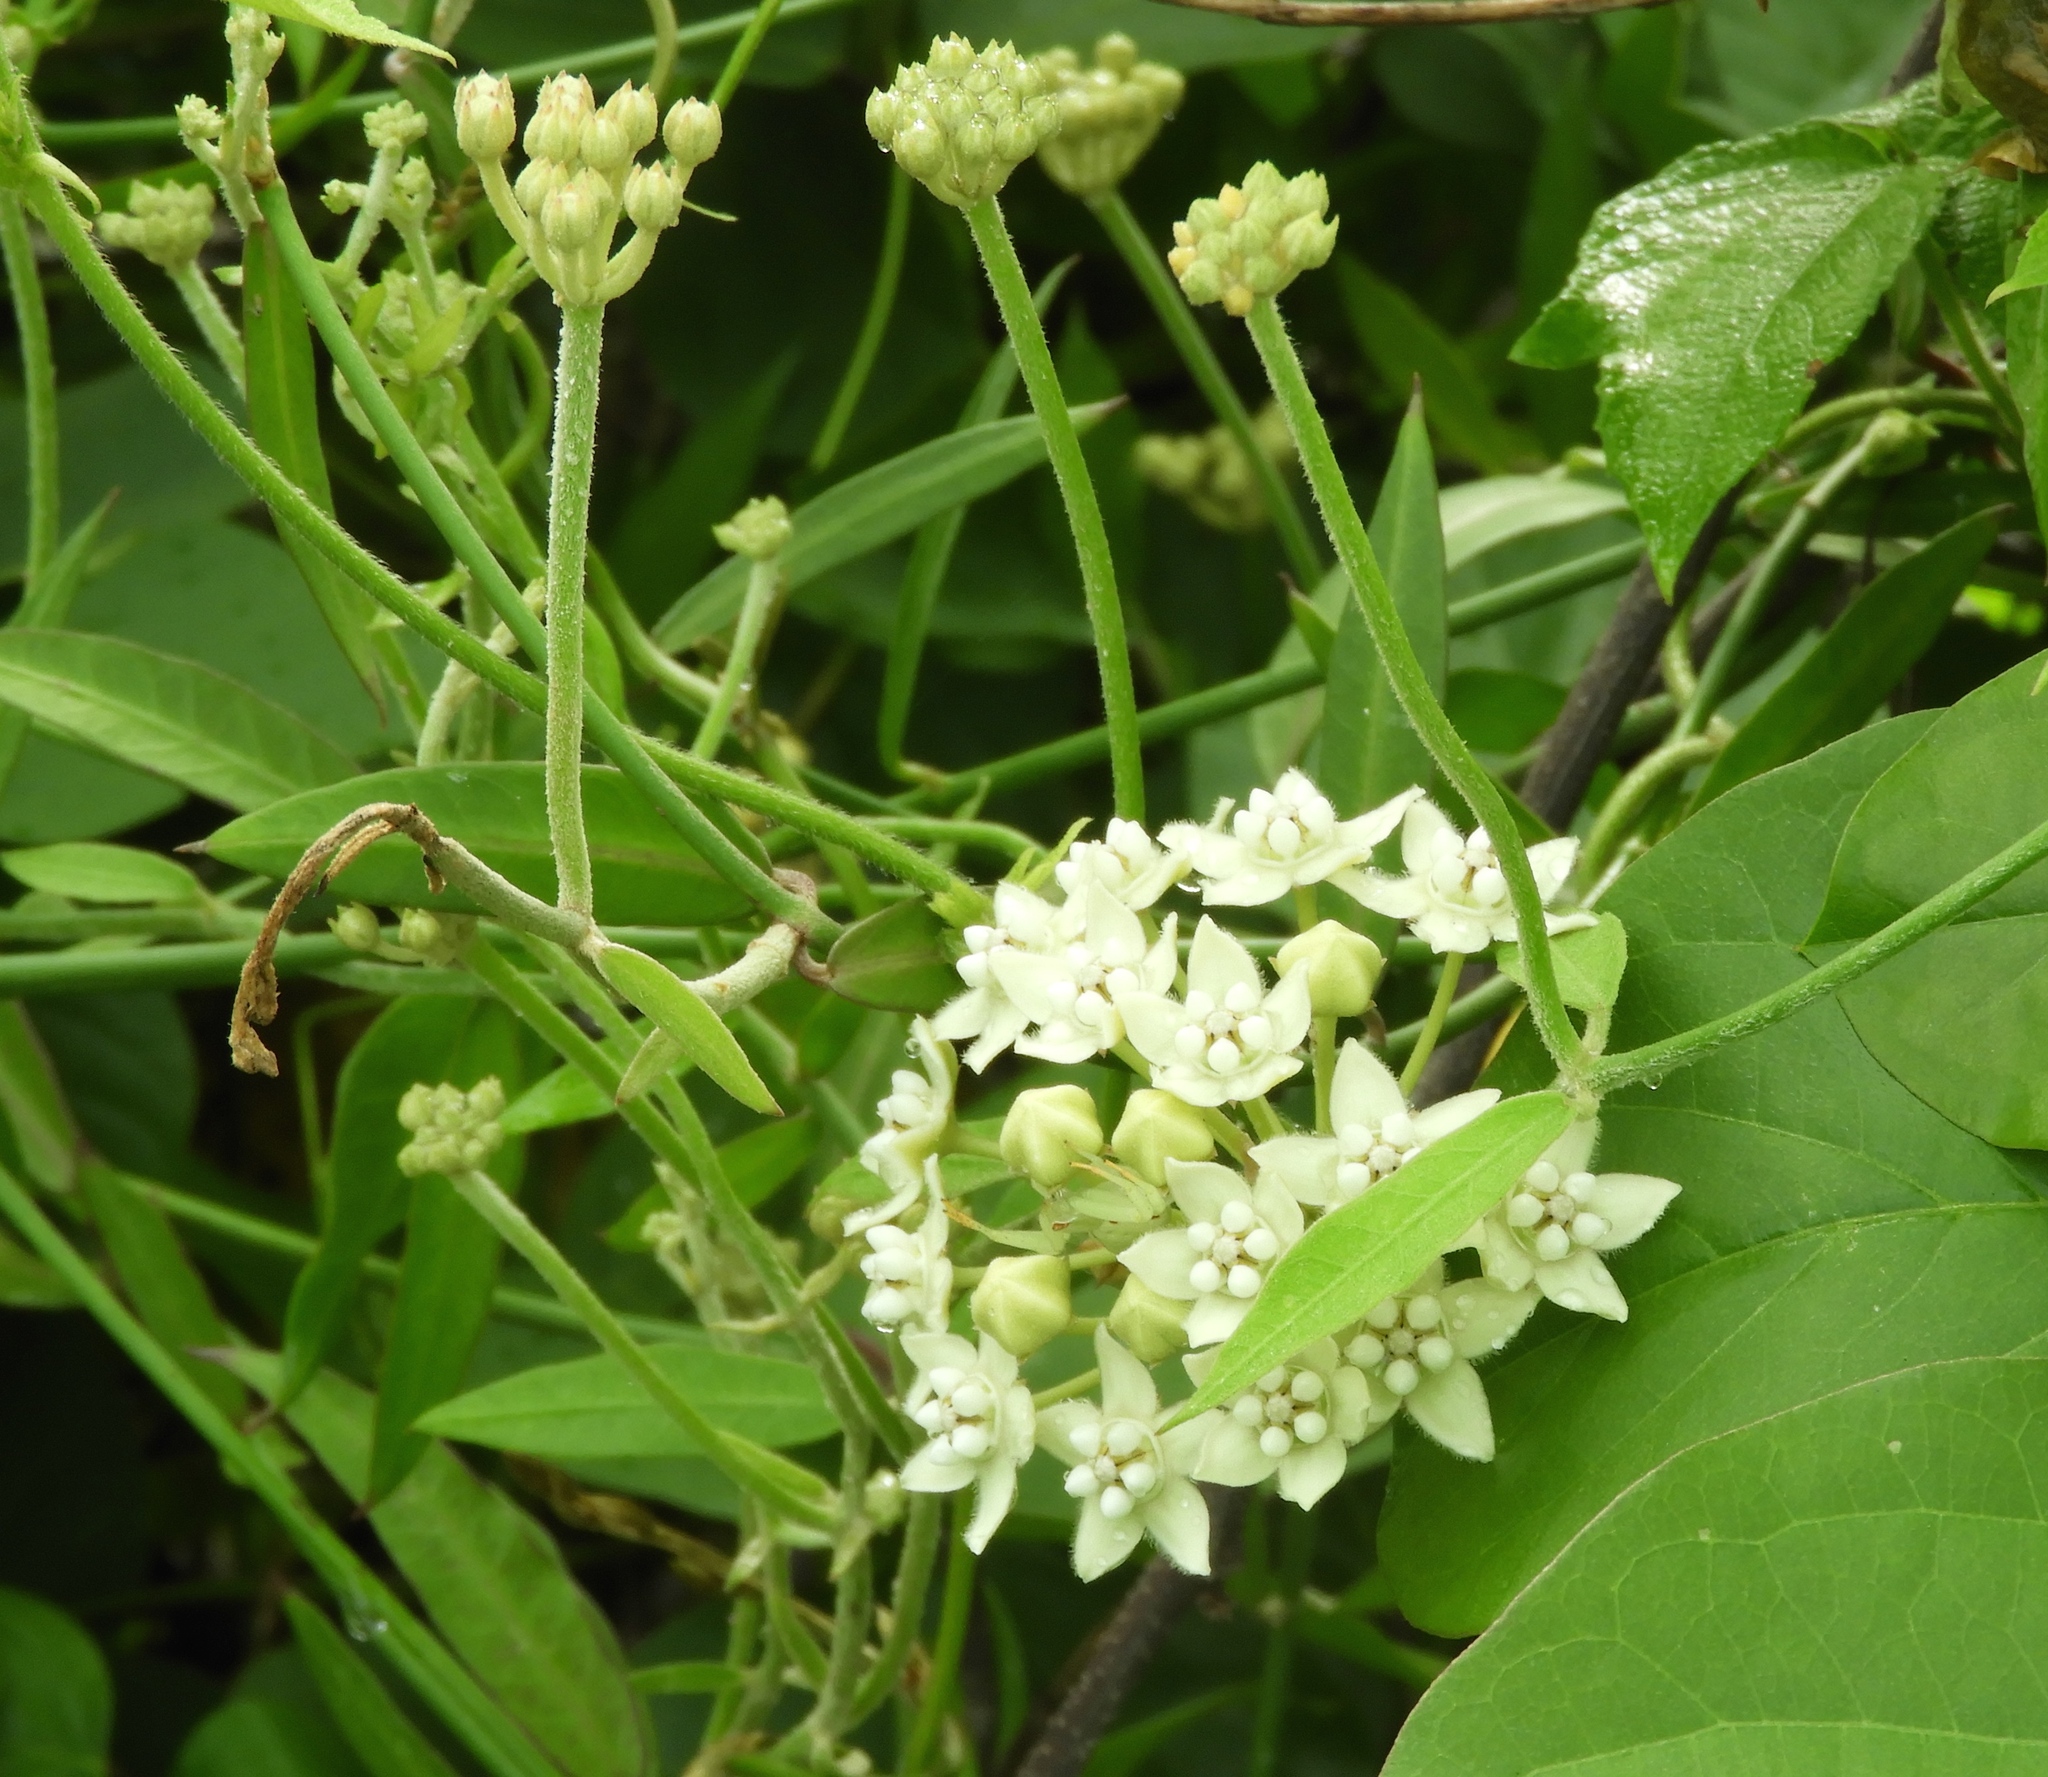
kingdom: Plantae
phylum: Tracheophyta
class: Magnoliopsida
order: Gentianales
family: Apocynaceae
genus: Funastrum
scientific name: Funastrum clausum
